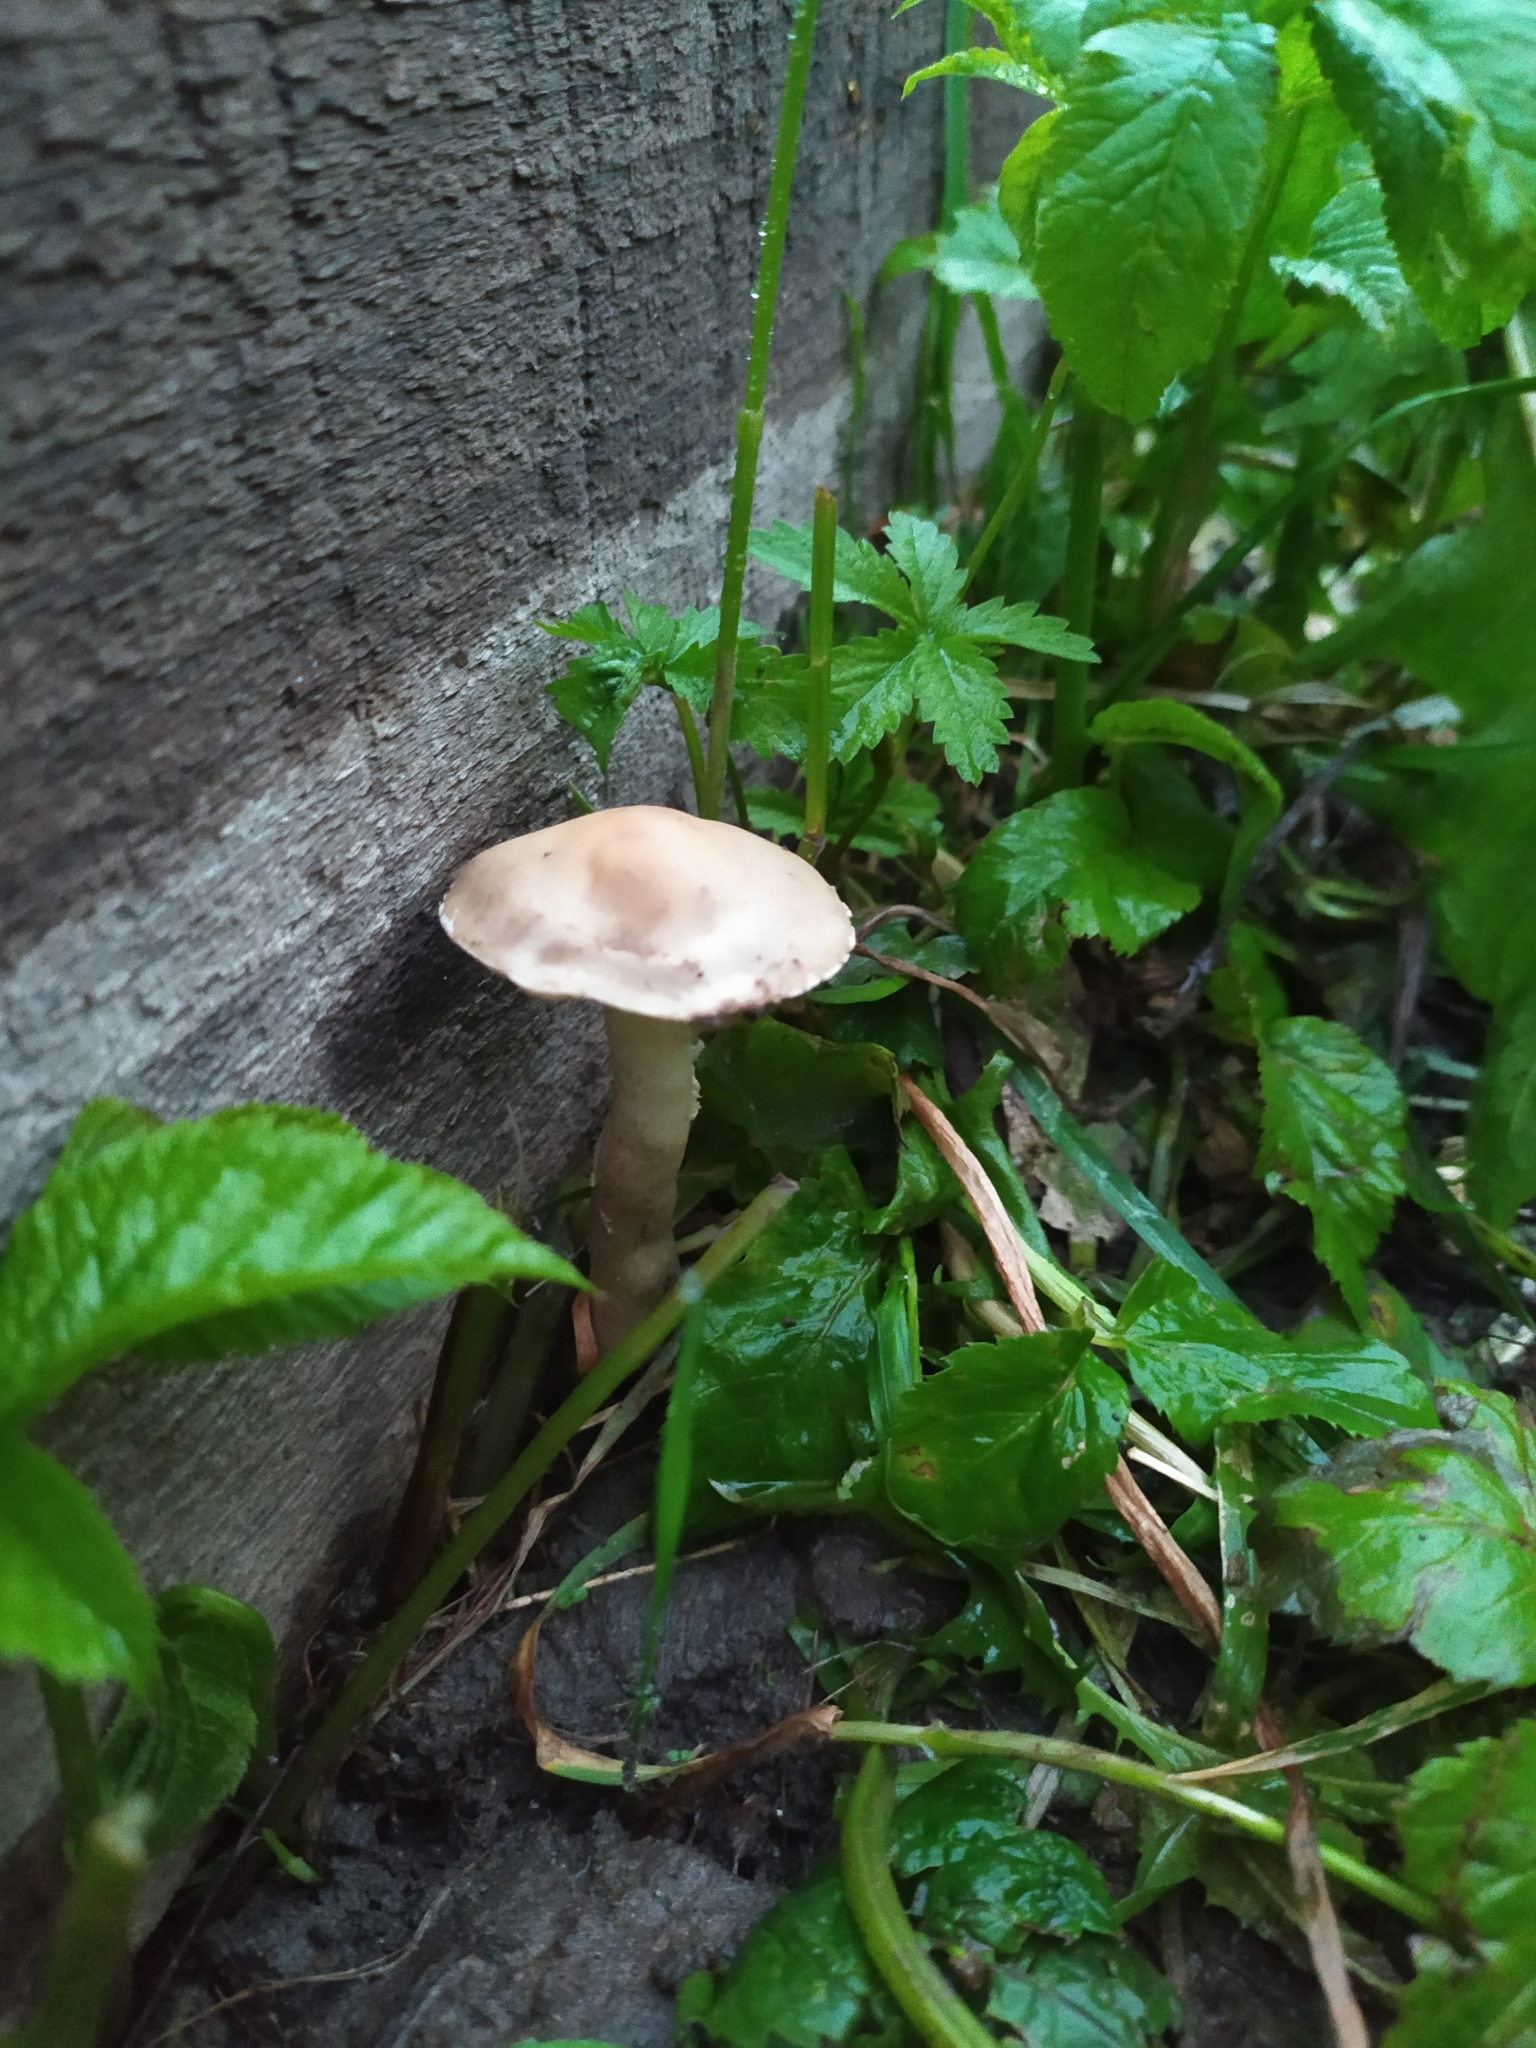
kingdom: Fungi
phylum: Basidiomycota
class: Agaricomycetes
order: Agaricales
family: Strophariaceae
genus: Agrocybe
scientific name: Agrocybe praecox
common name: Spring fieldcap
